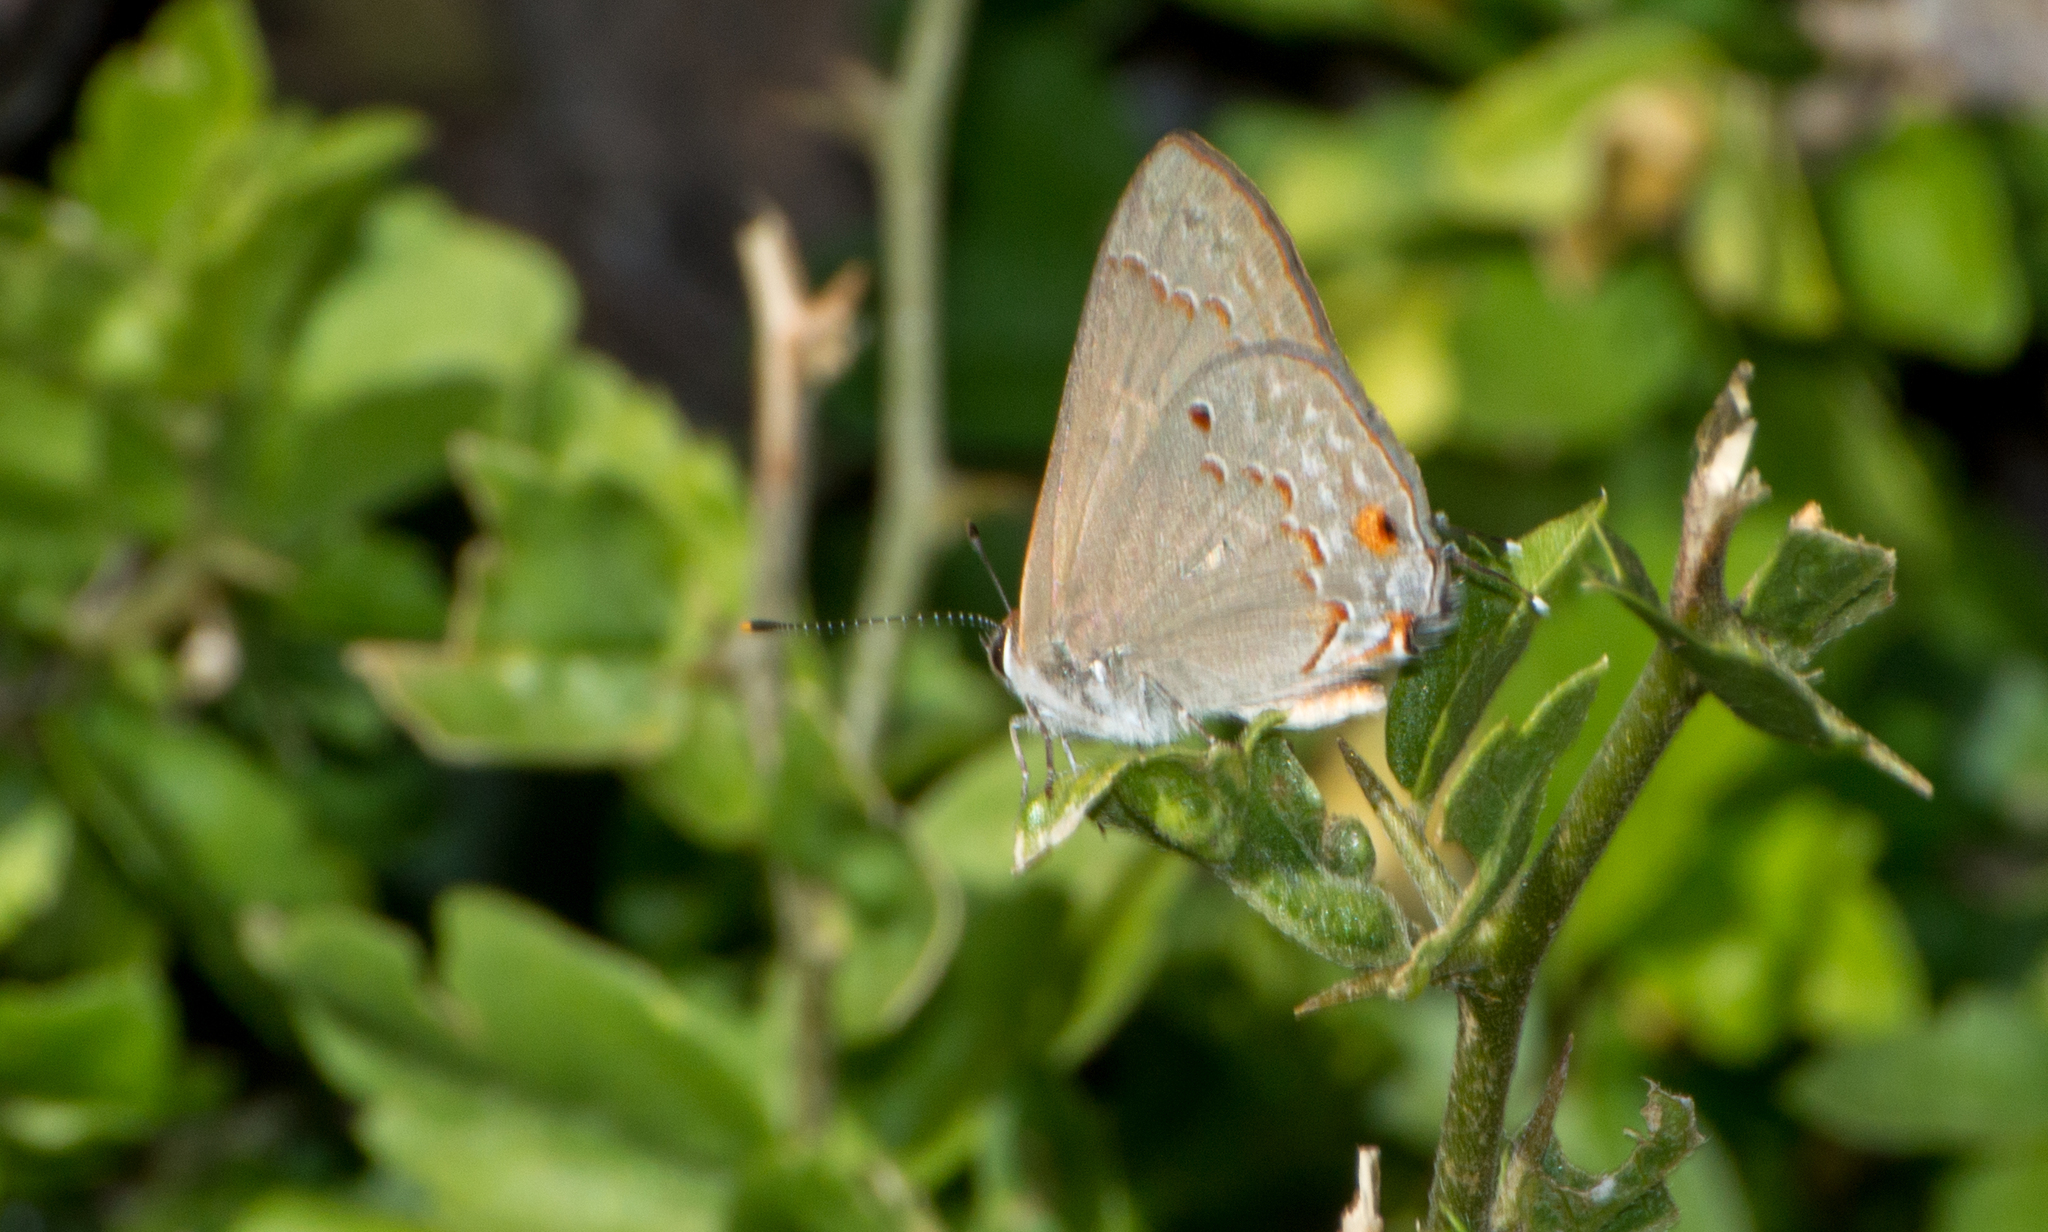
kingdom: Animalia
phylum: Arthropoda
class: Insecta
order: Lepidoptera
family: Lycaenidae
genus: Thecla
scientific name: Thecla rufofusca
